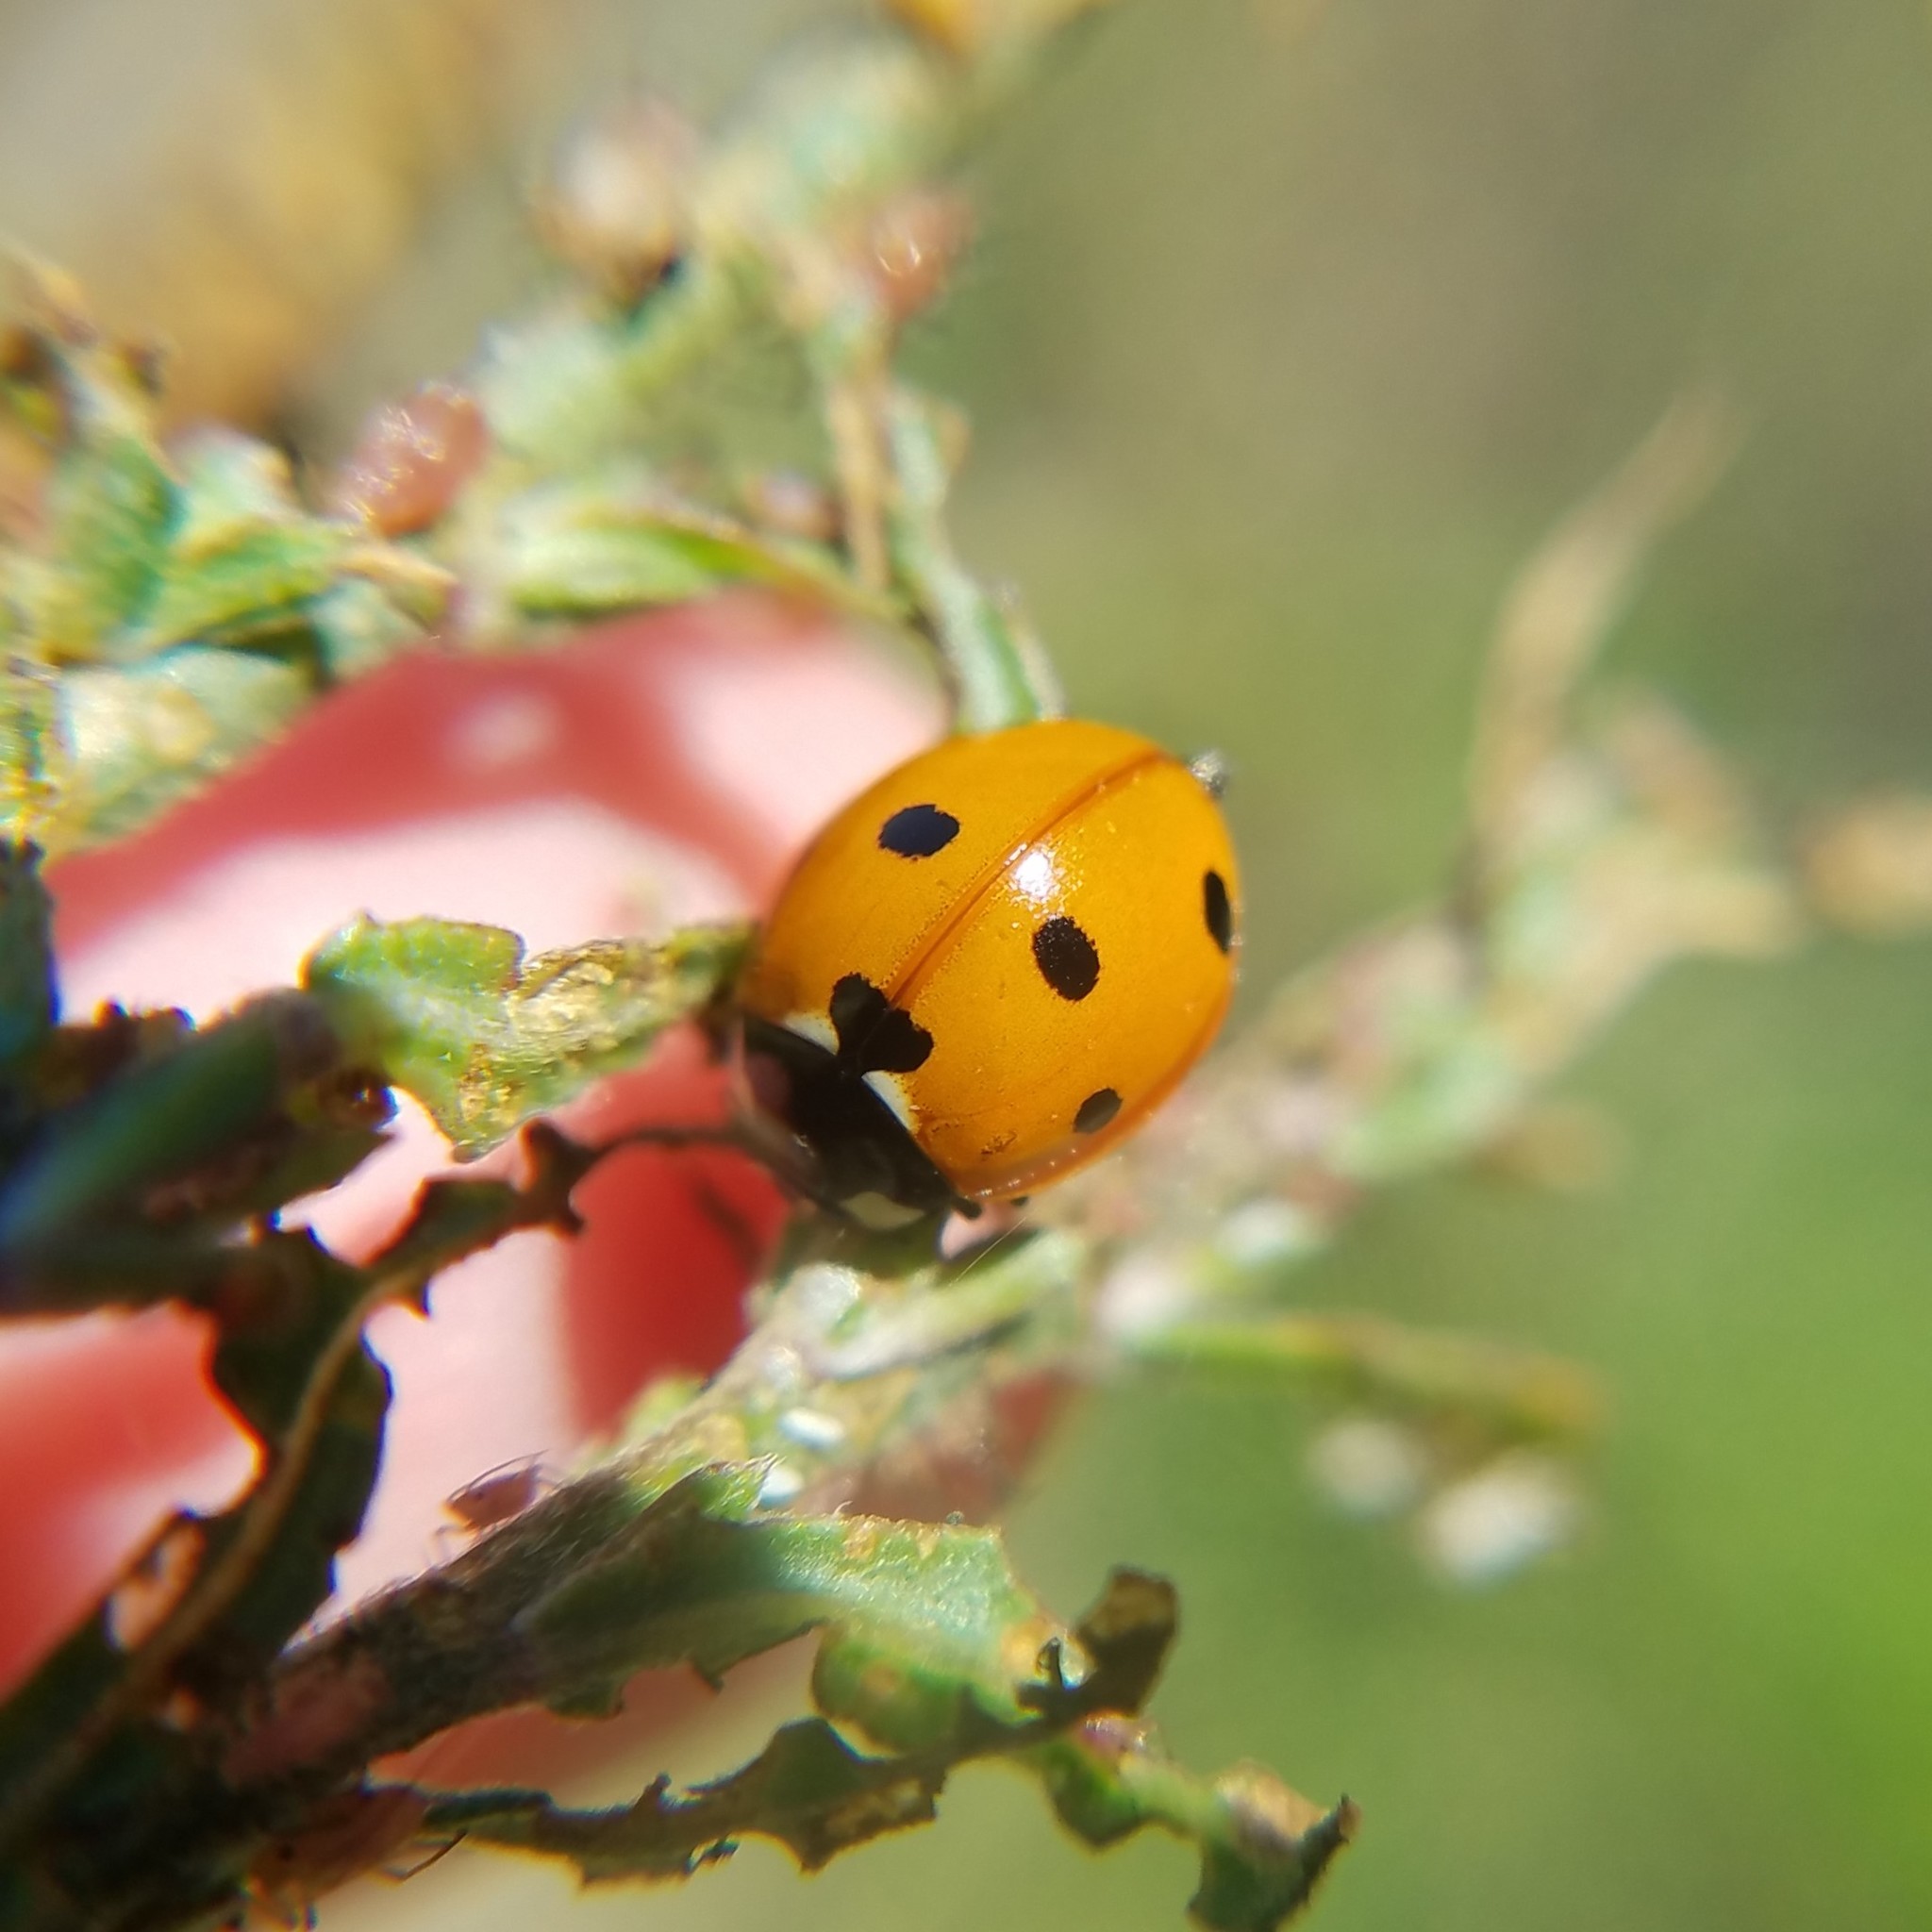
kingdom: Animalia
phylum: Arthropoda
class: Insecta
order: Coleoptera
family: Coccinellidae
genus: Coccinella
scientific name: Coccinella septempunctata
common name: Sevenspotted lady beetle
